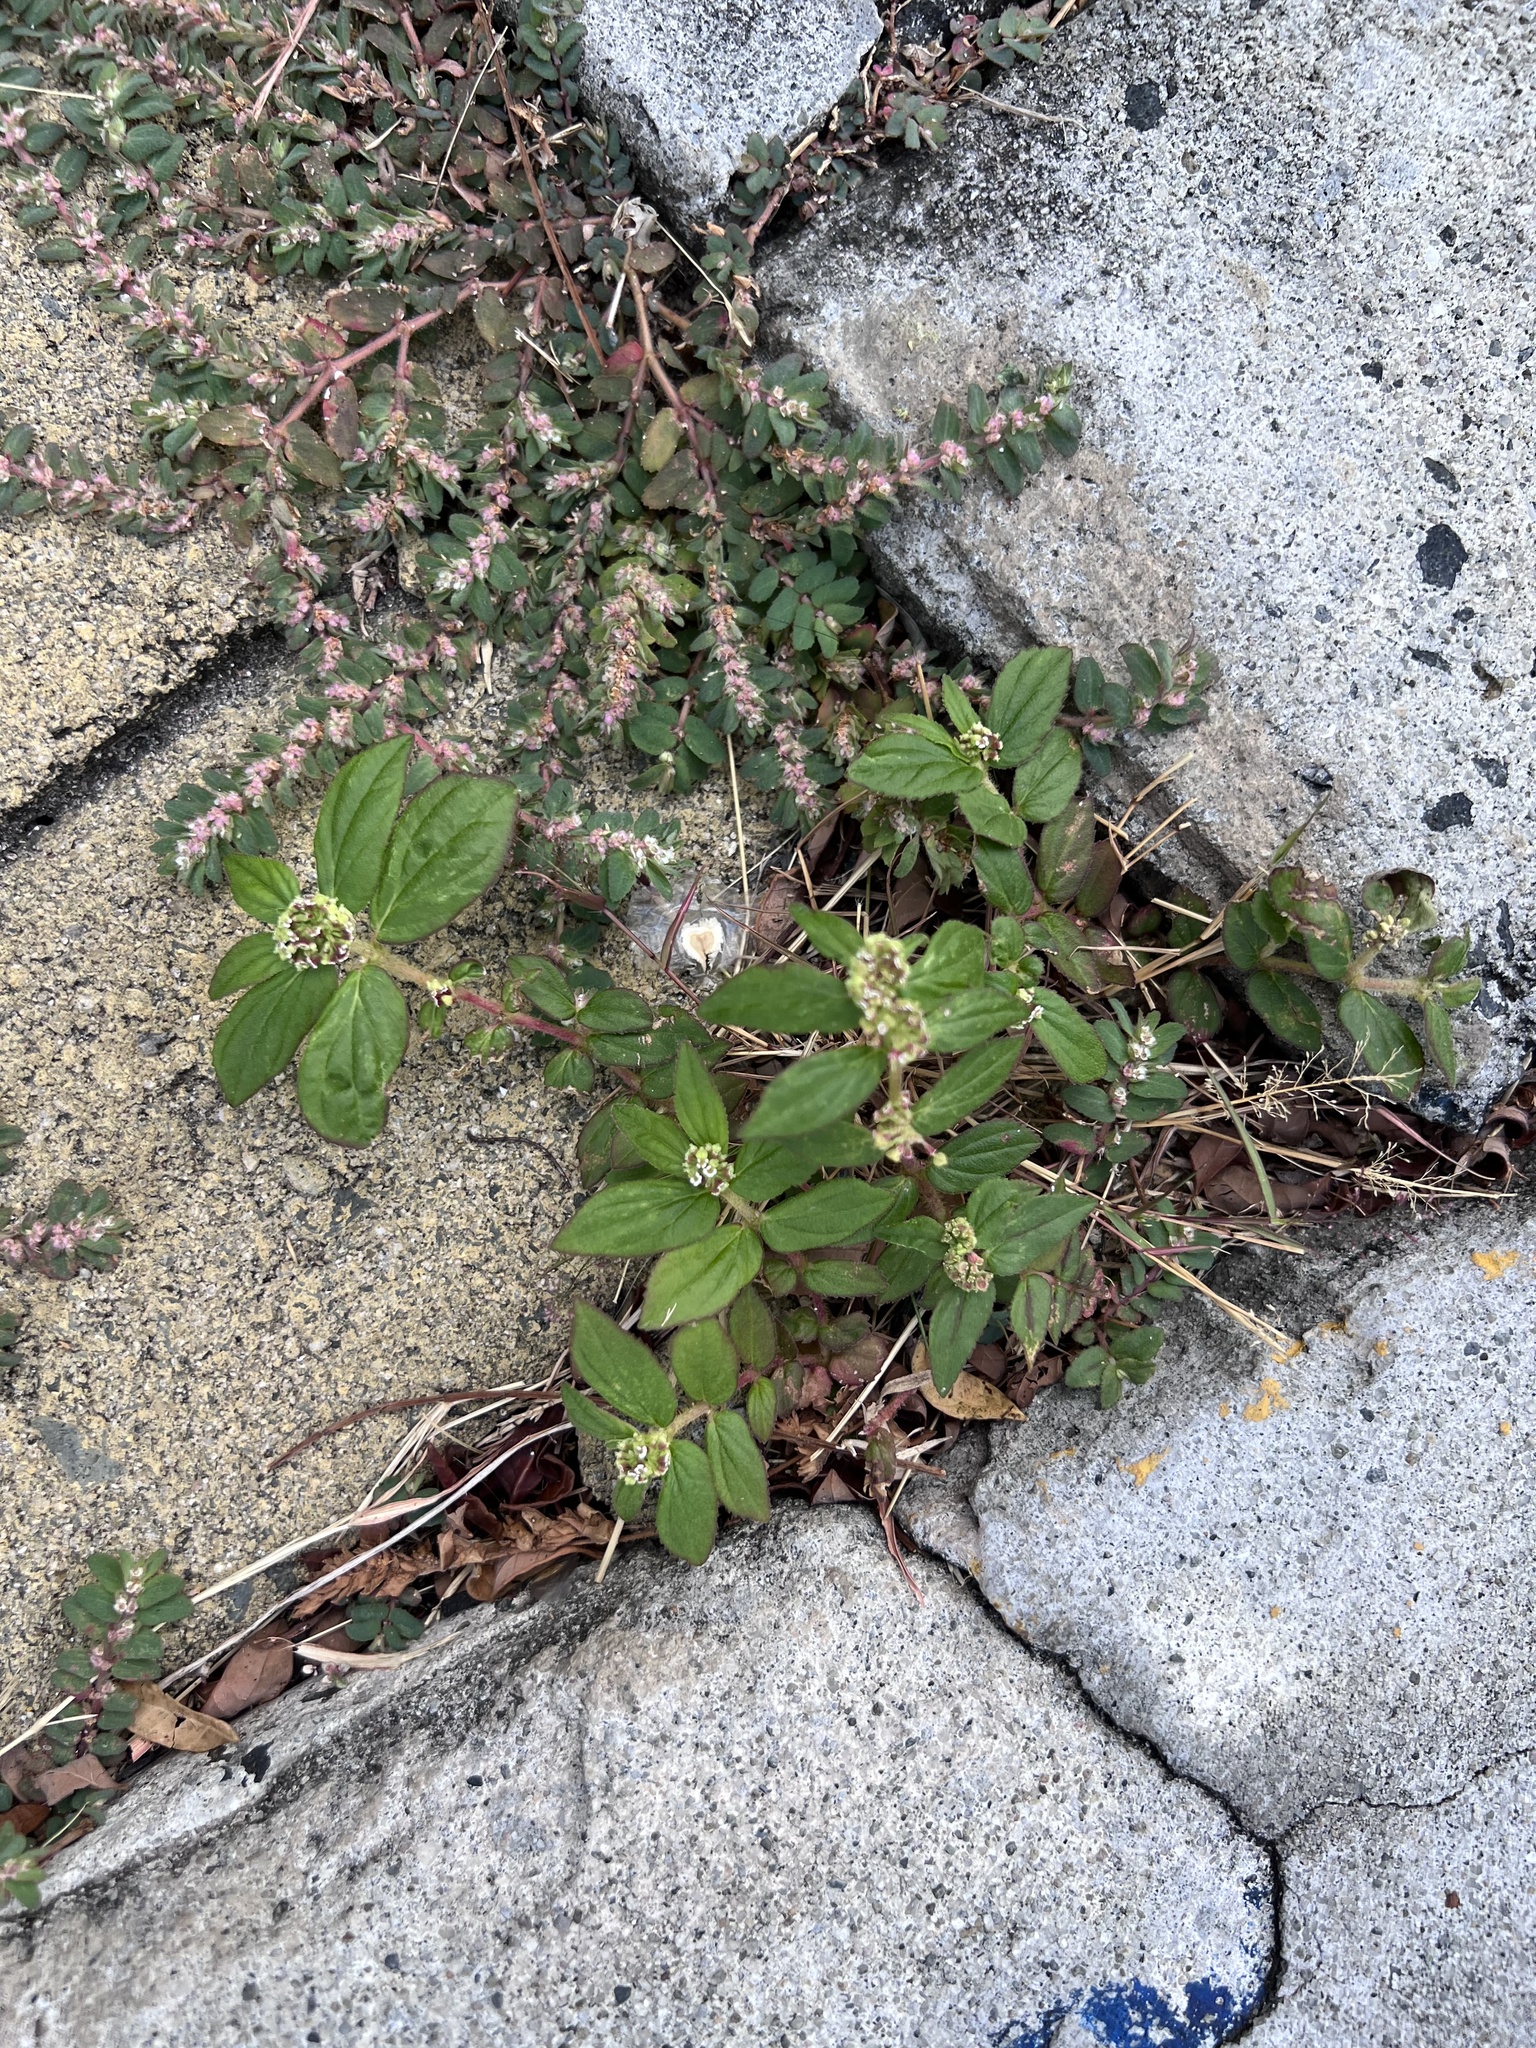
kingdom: Plantae
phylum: Tracheophyta
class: Magnoliopsida
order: Malpighiales
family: Euphorbiaceae
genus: Euphorbia
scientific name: Euphorbia hirta
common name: Pillpod sandmat
